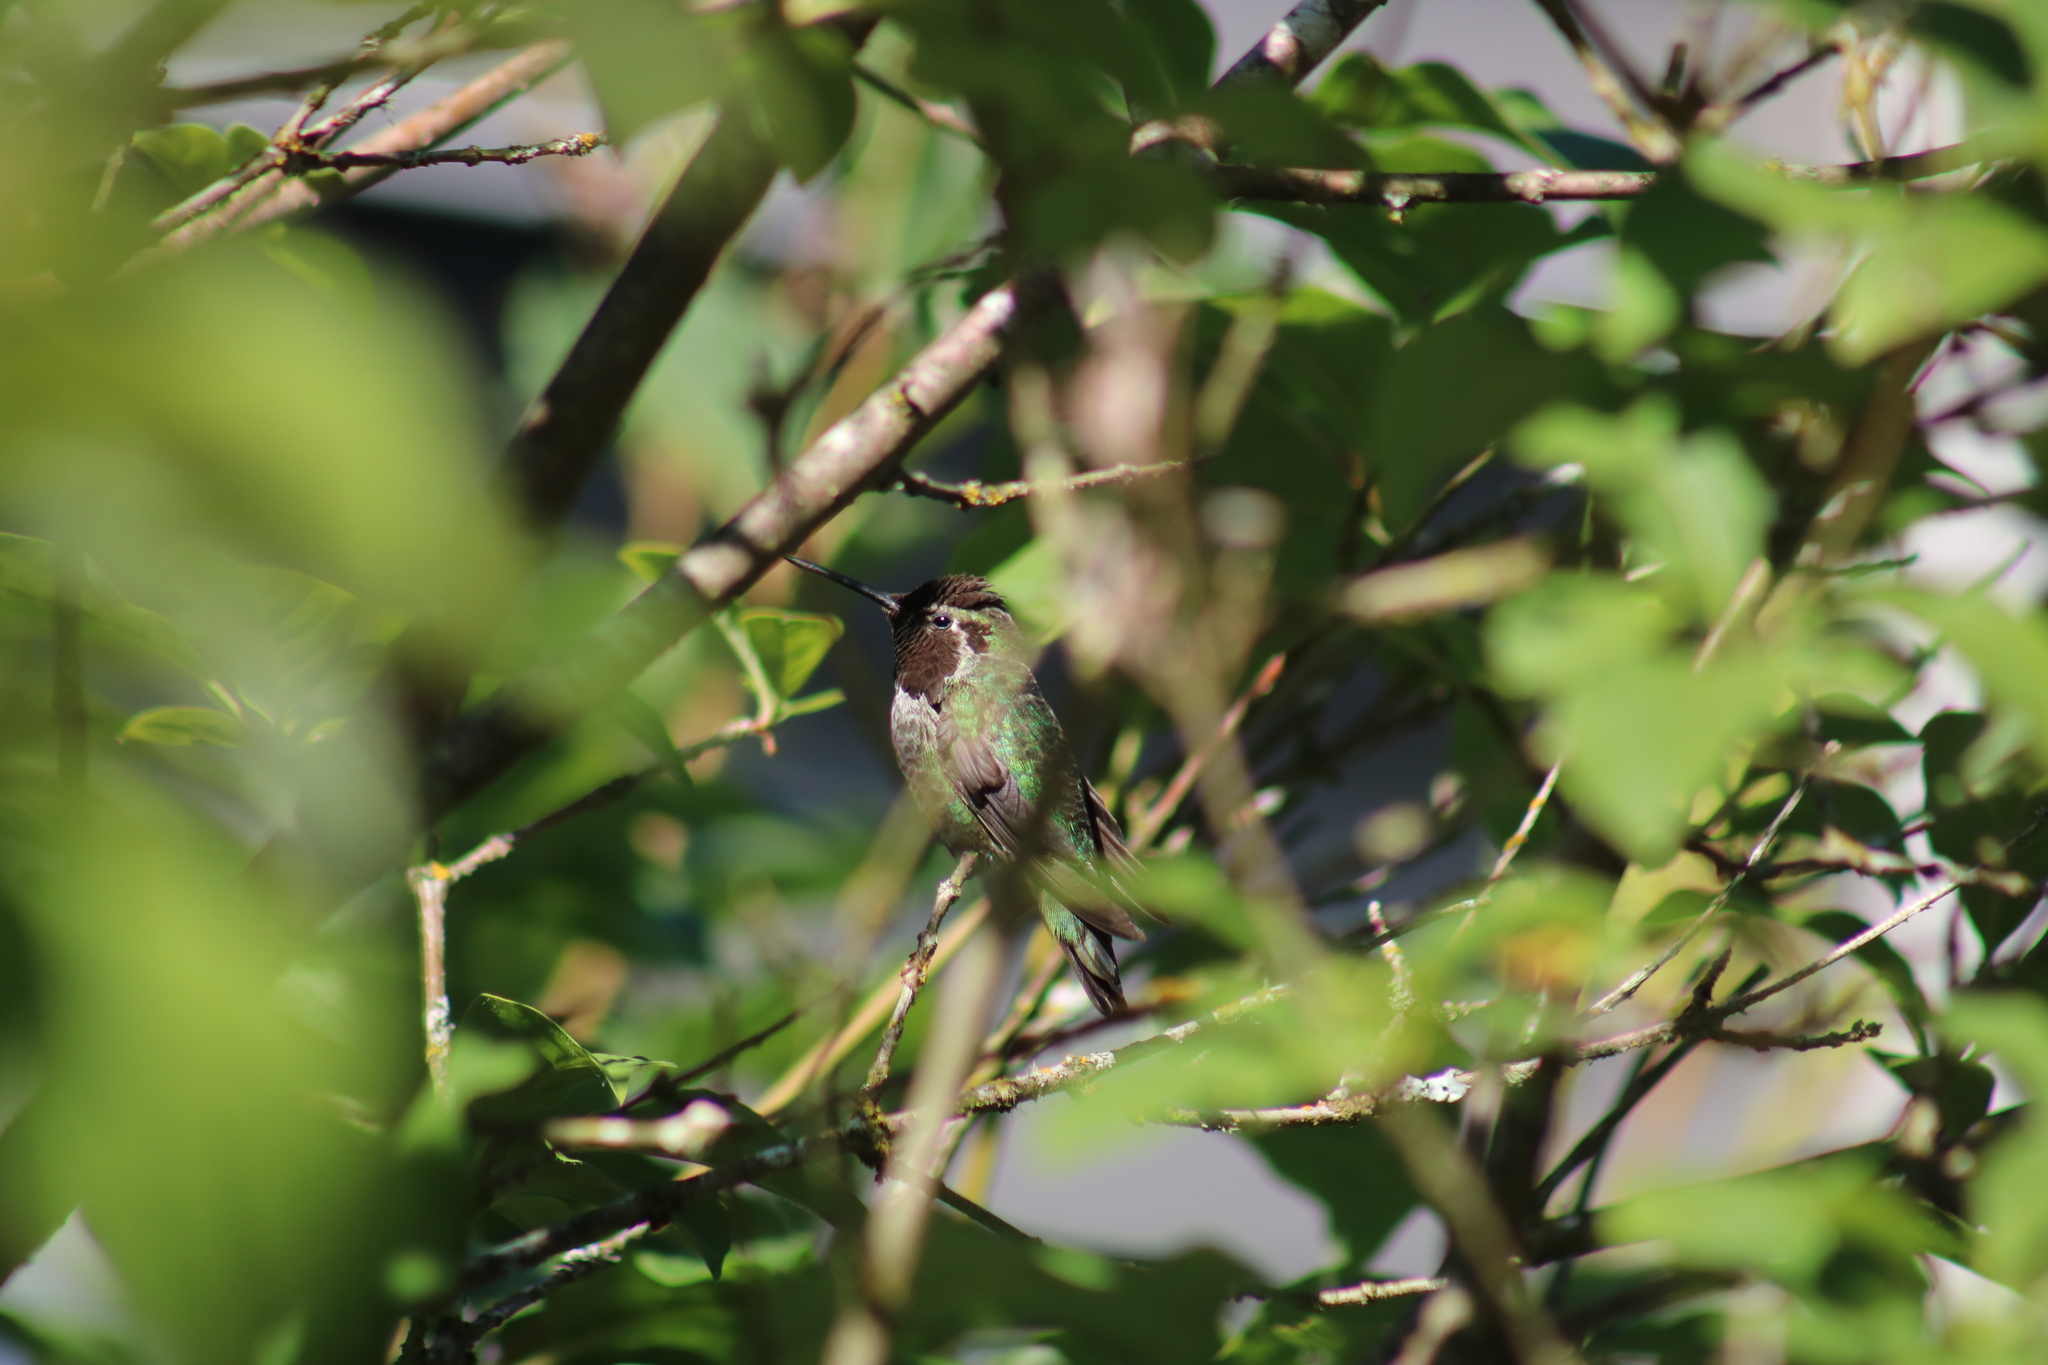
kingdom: Animalia
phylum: Chordata
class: Aves
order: Apodiformes
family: Trochilidae
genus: Calypte
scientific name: Calypte anna
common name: Anna's hummingbird
